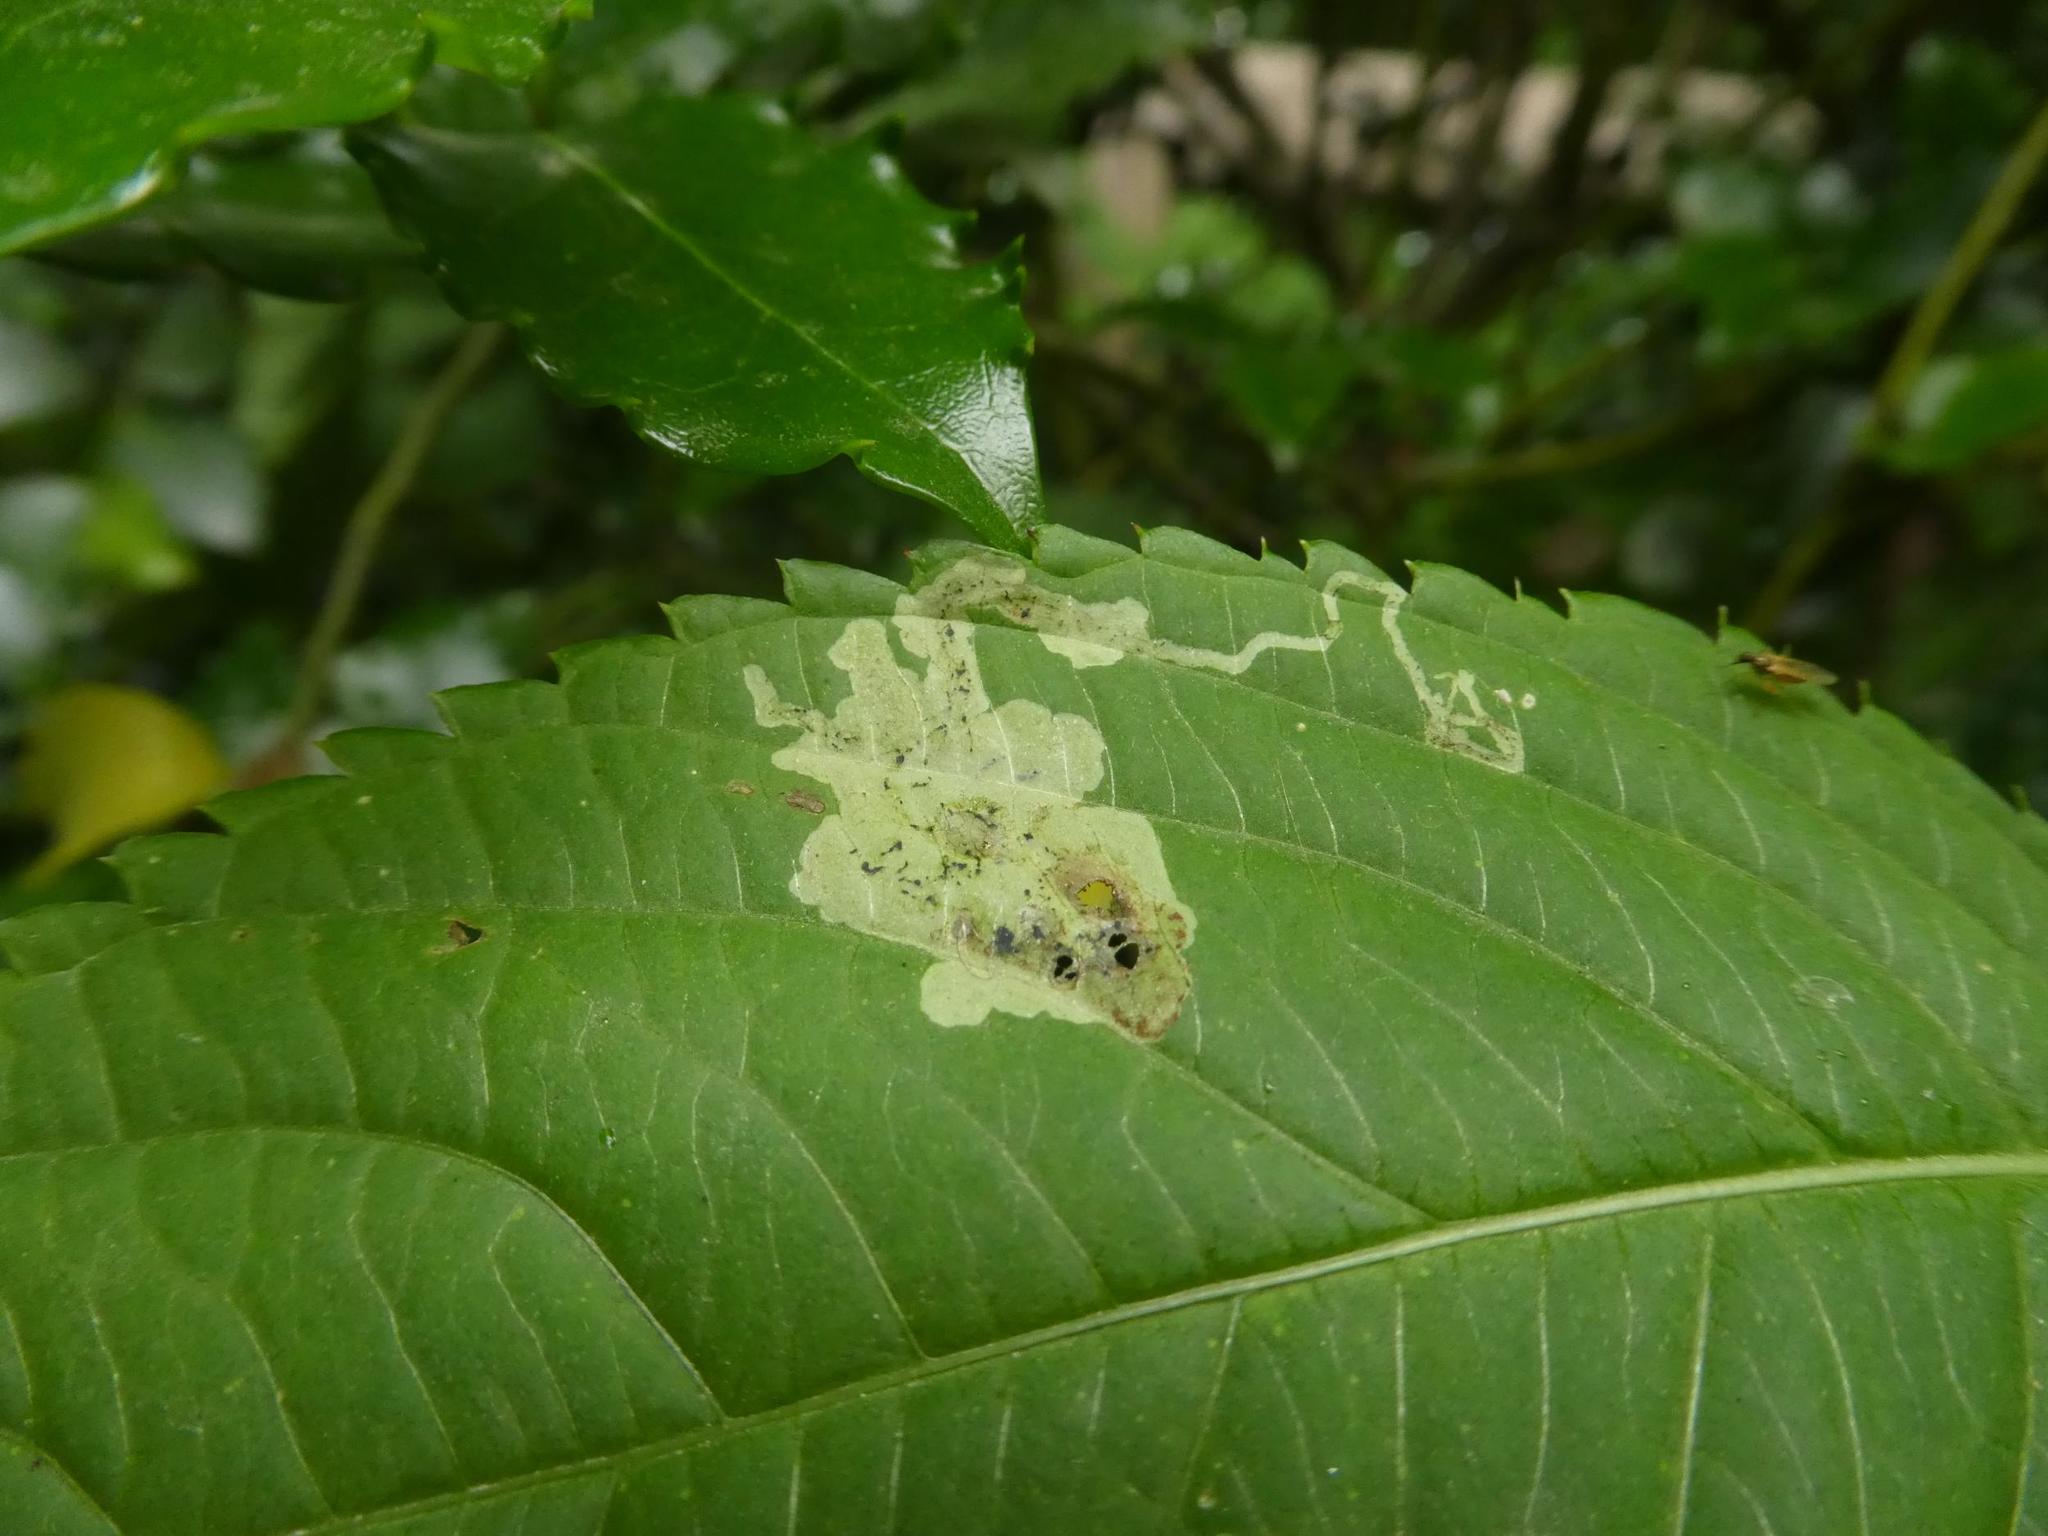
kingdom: Animalia
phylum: Arthropoda
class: Insecta
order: Diptera
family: Agromyzidae
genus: Phytoliriomyza
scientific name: Phytoliriomyza melampyga
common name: Jewelweed leaf-miner fly
